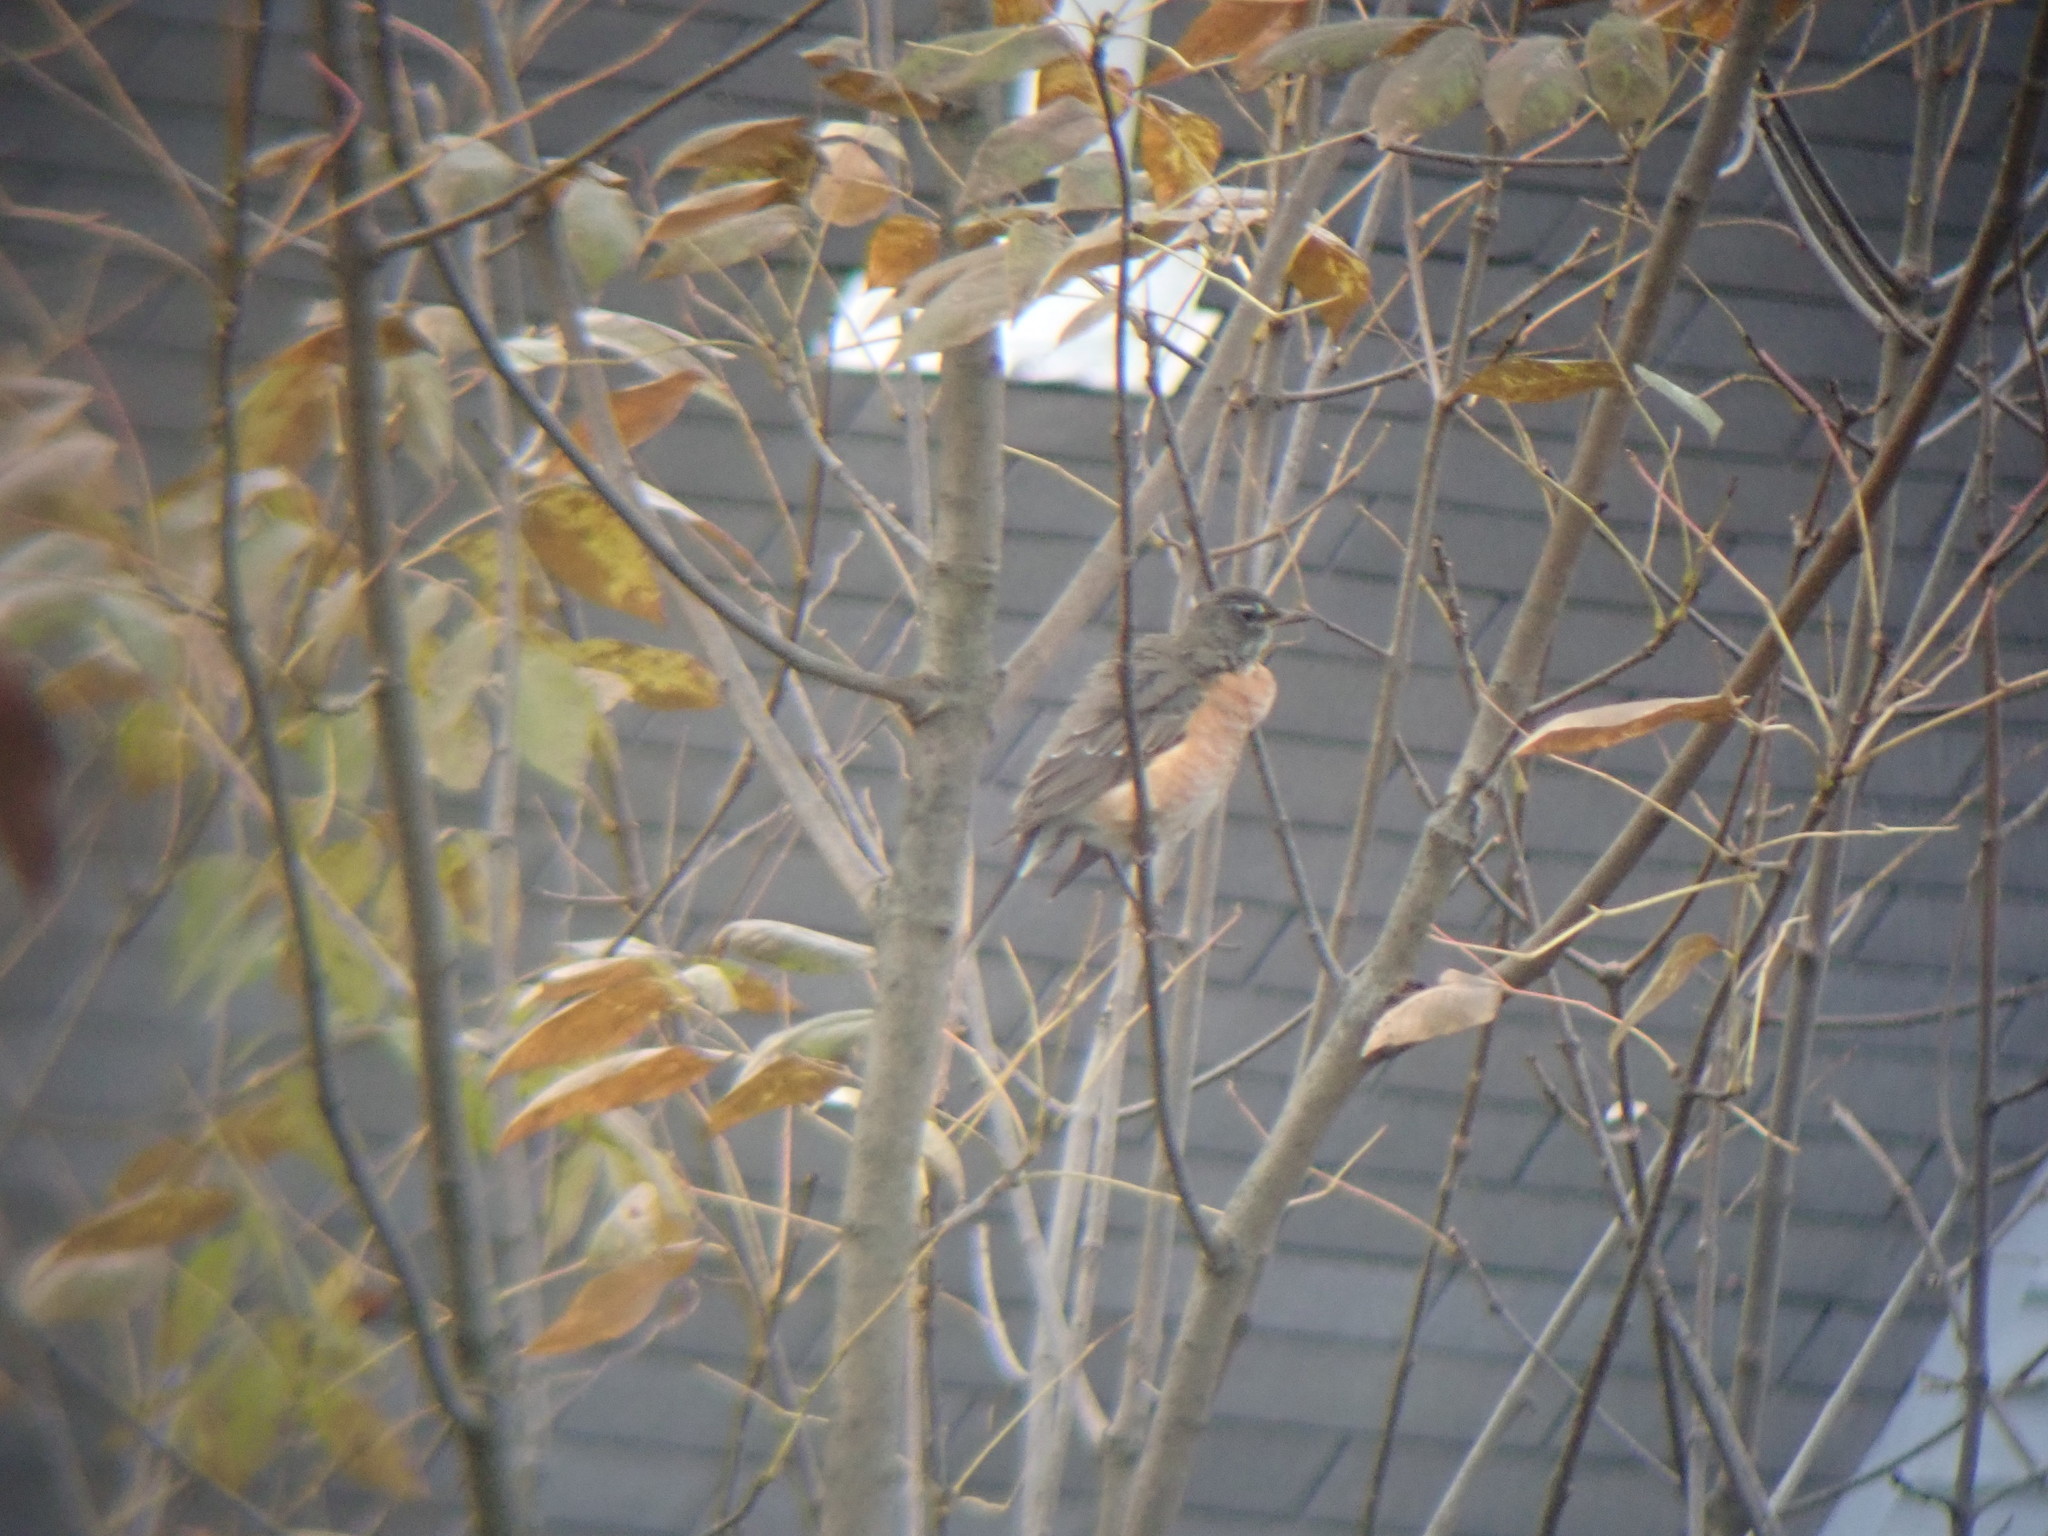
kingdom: Animalia
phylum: Chordata
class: Aves
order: Passeriformes
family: Turdidae
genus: Turdus
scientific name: Turdus migratorius
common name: American robin
